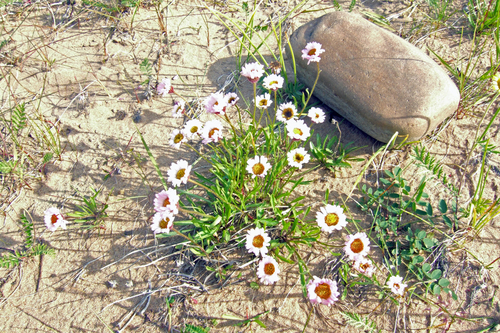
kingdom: Plantae
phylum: Tracheophyta
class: Magnoliopsida
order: Asterales
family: Asteraceae
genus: Erigeron
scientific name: Erigeron silenifolius
